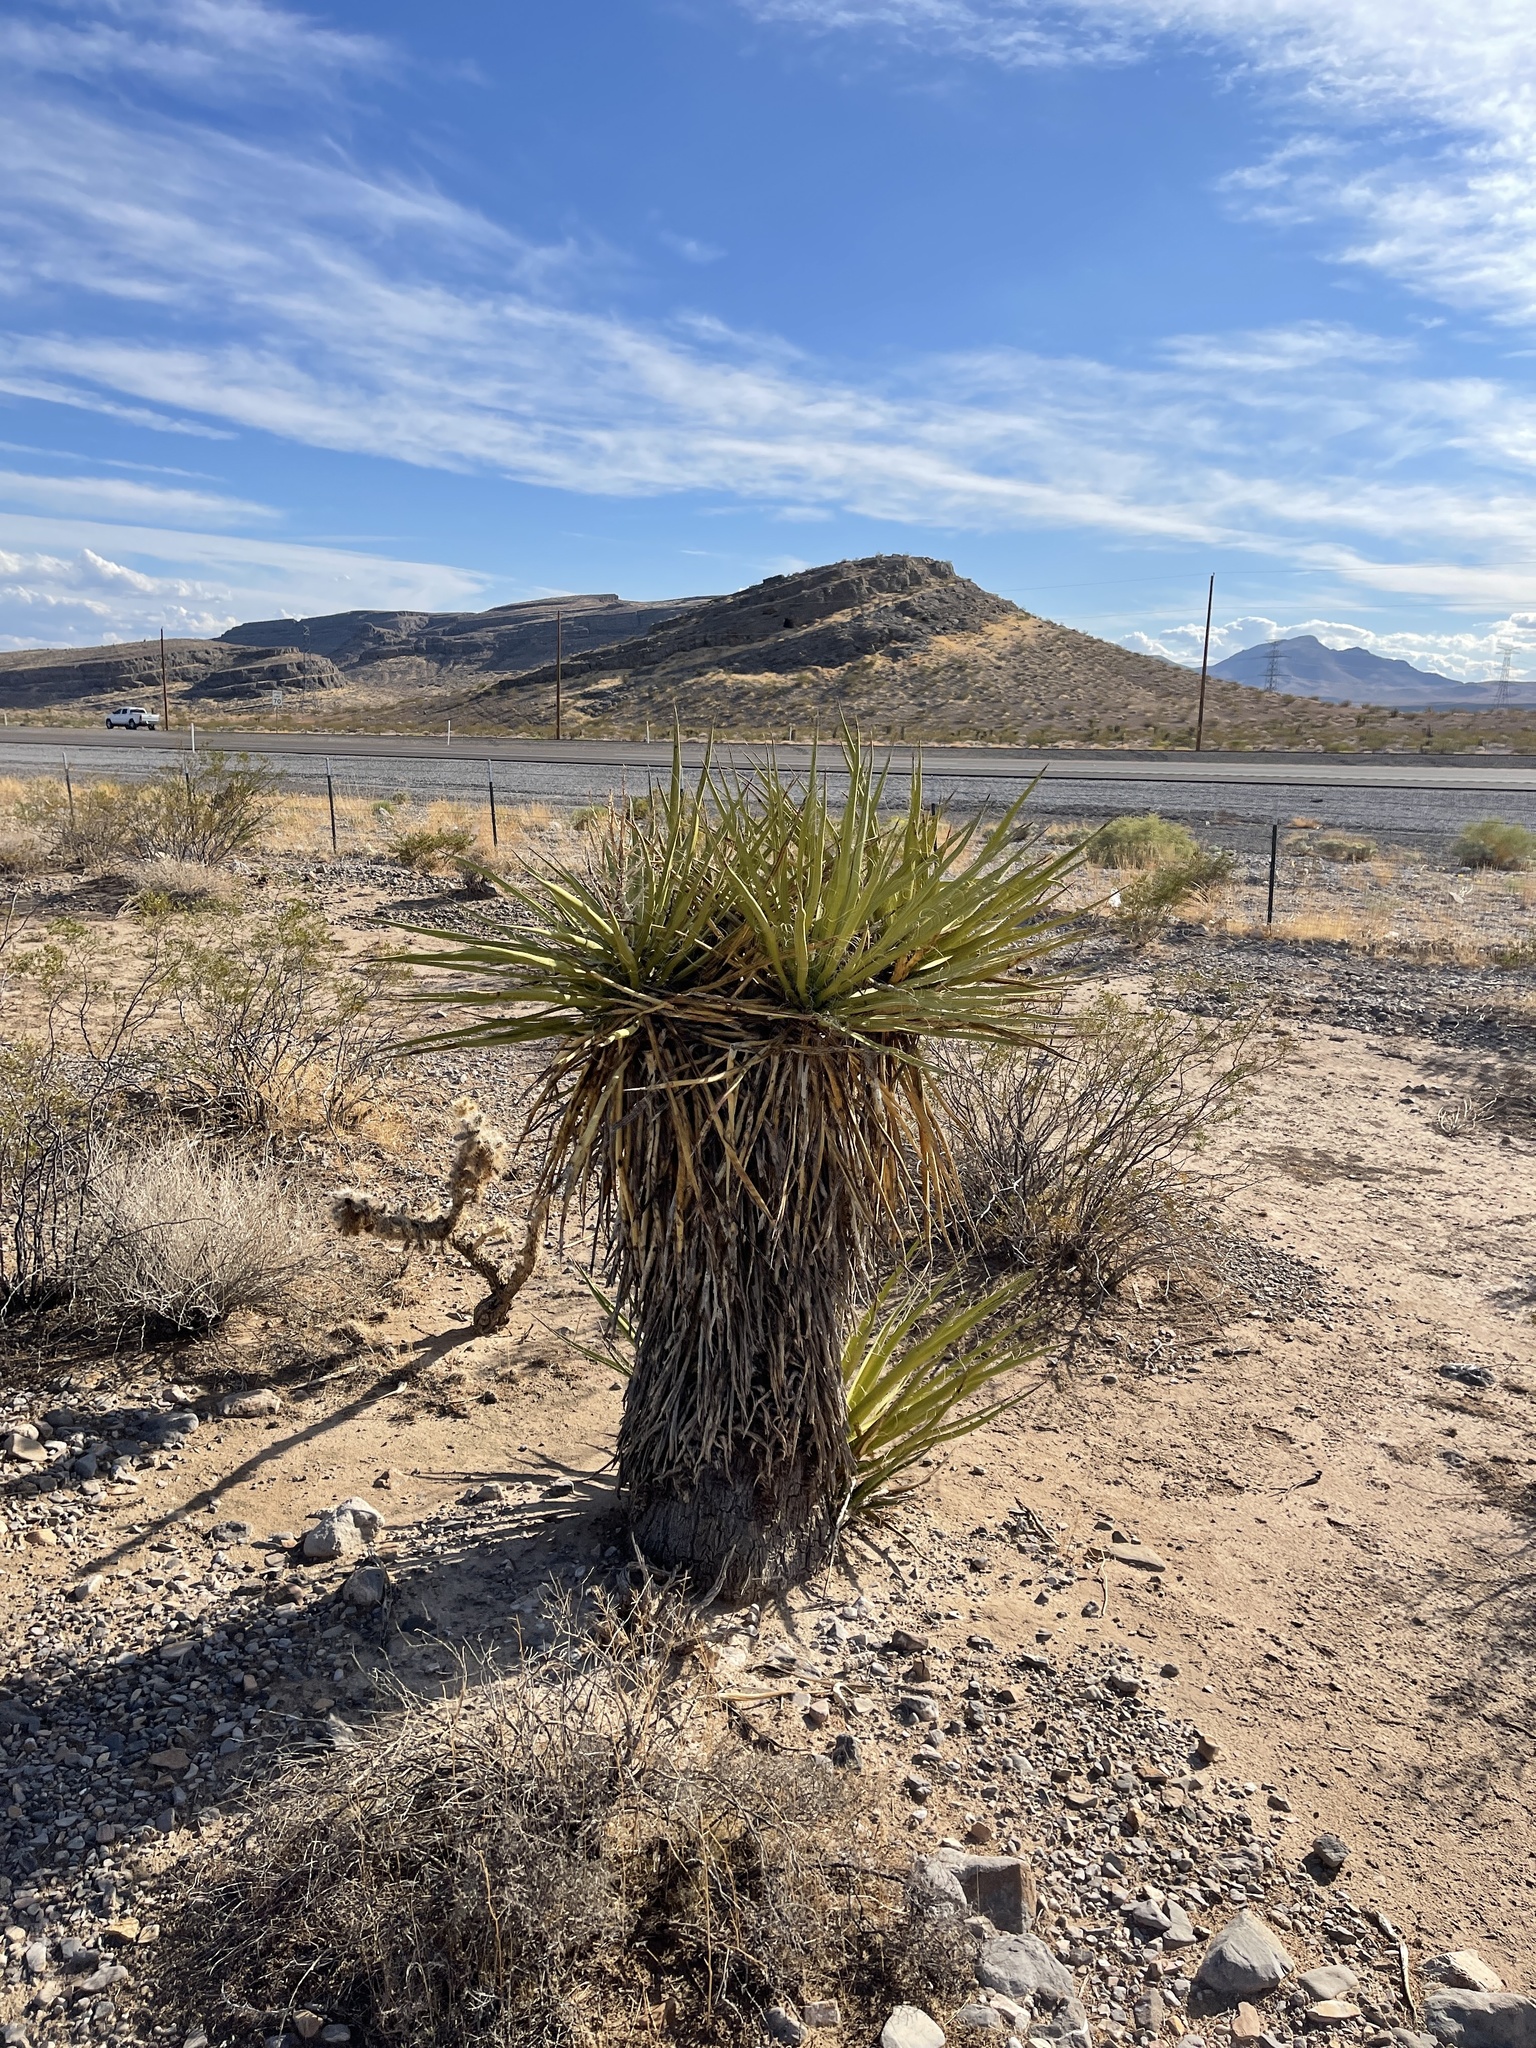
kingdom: Plantae
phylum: Tracheophyta
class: Liliopsida
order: Asparagales
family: Asparagaceae
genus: Yucca
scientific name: Yucca schidigera
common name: Mojave yucca
